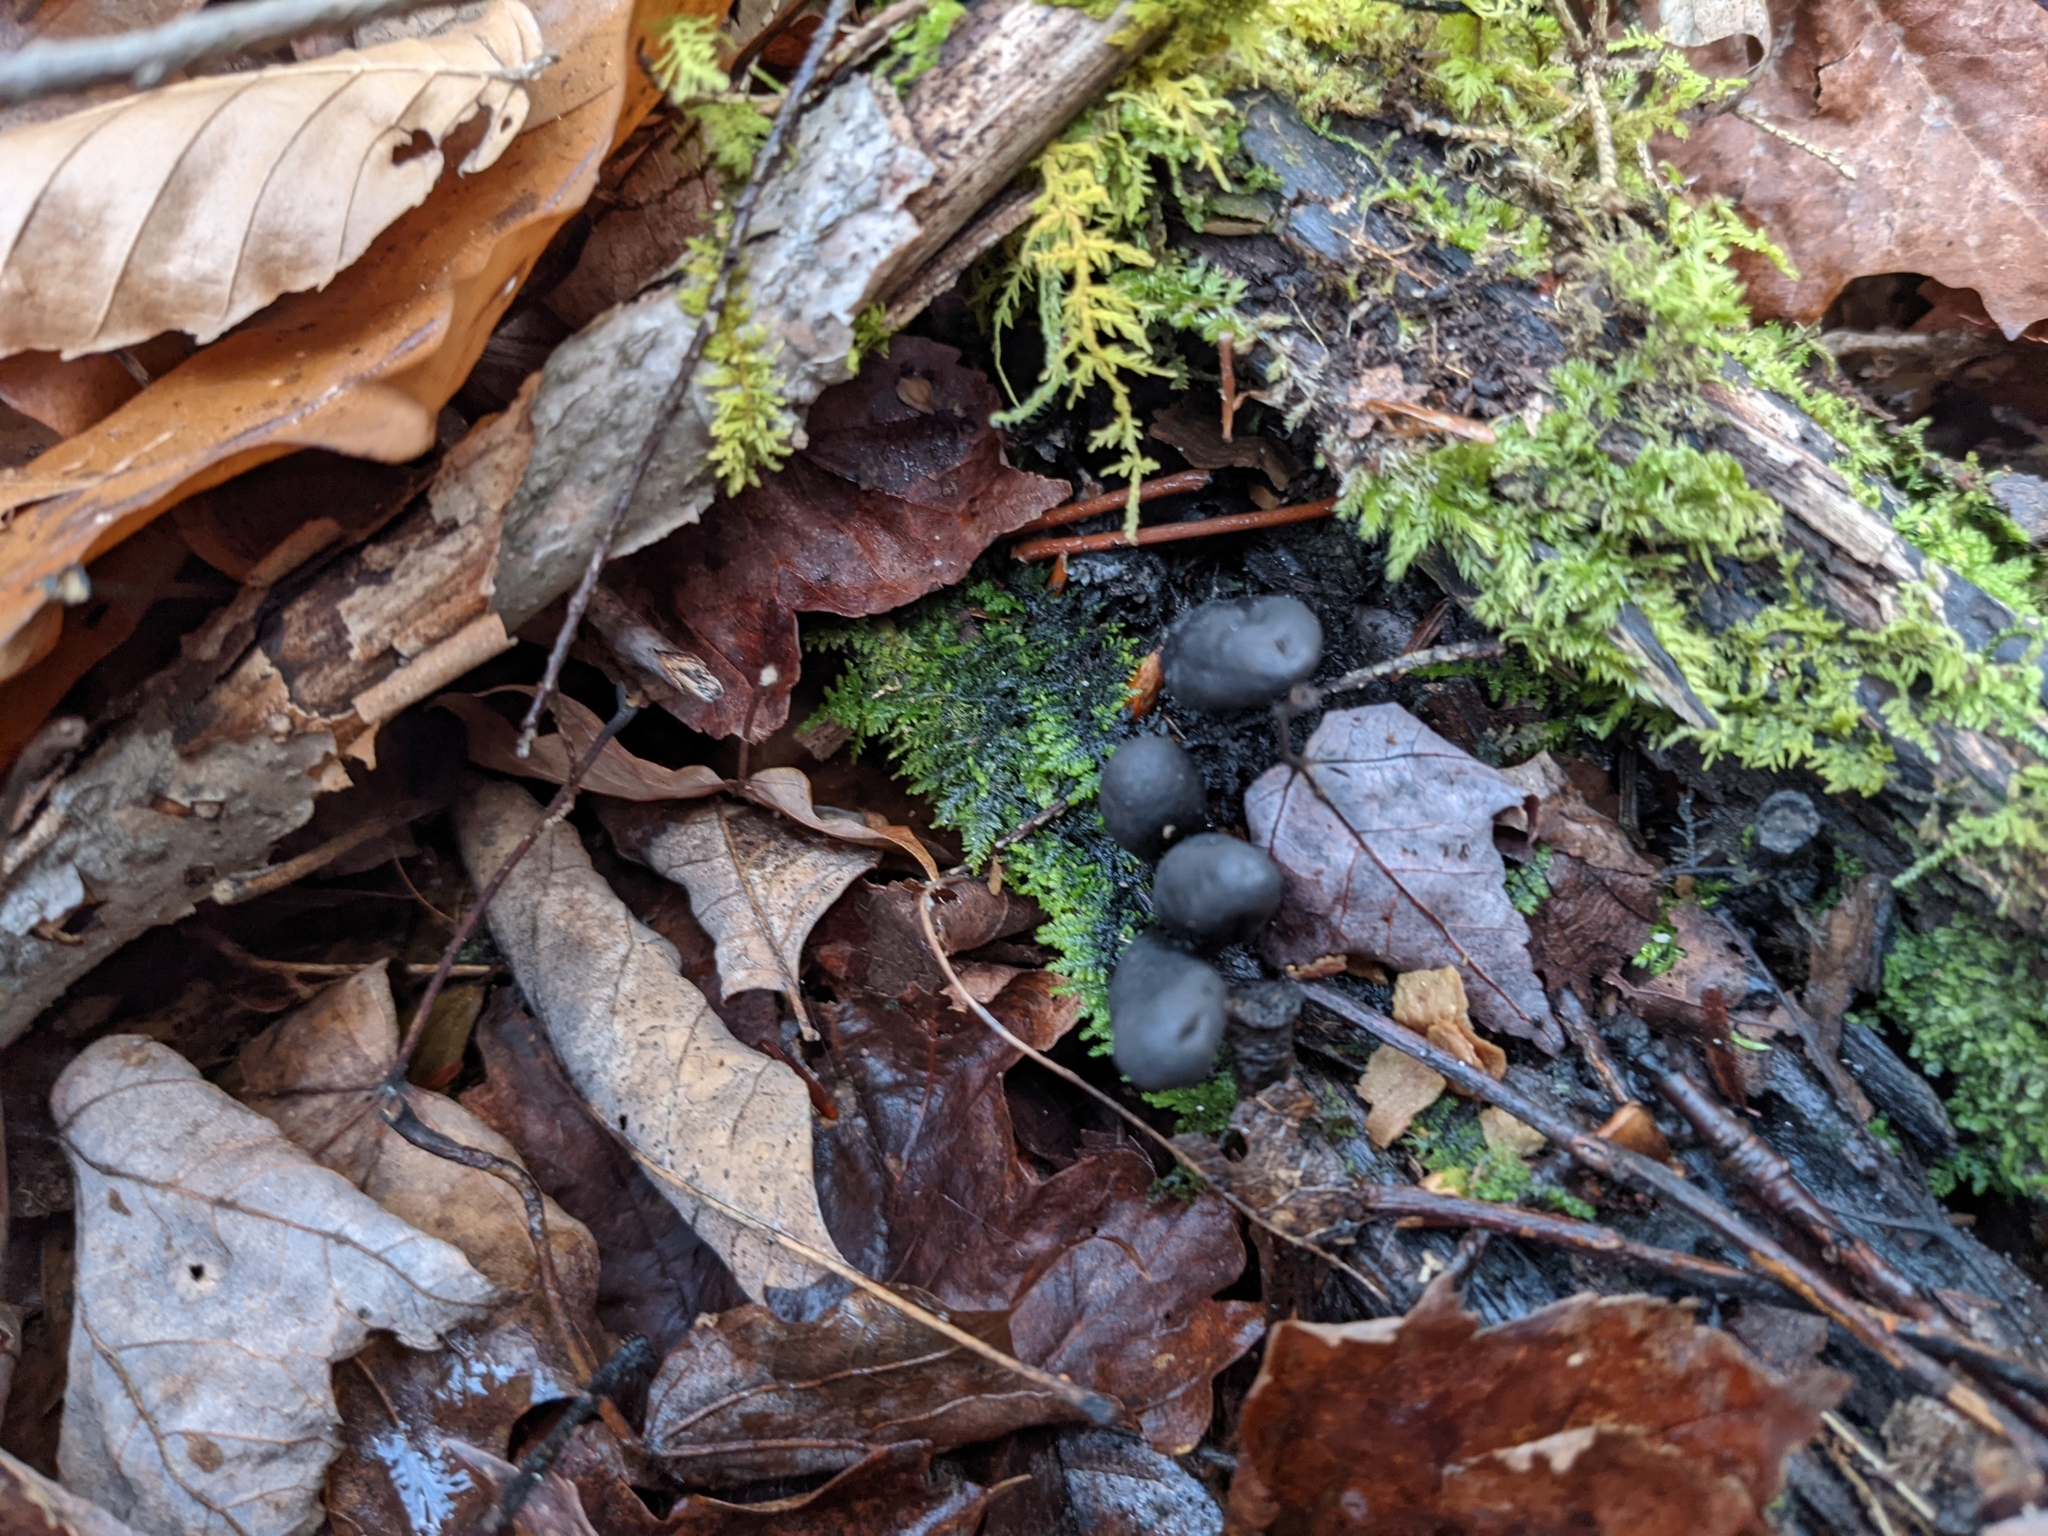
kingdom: Fungi
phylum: Ascomycota
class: Sordariomycetes
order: Xylariales
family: Xylariaceae
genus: Xylaria
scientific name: Xylaria polymorpha
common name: Dead man's fingers
